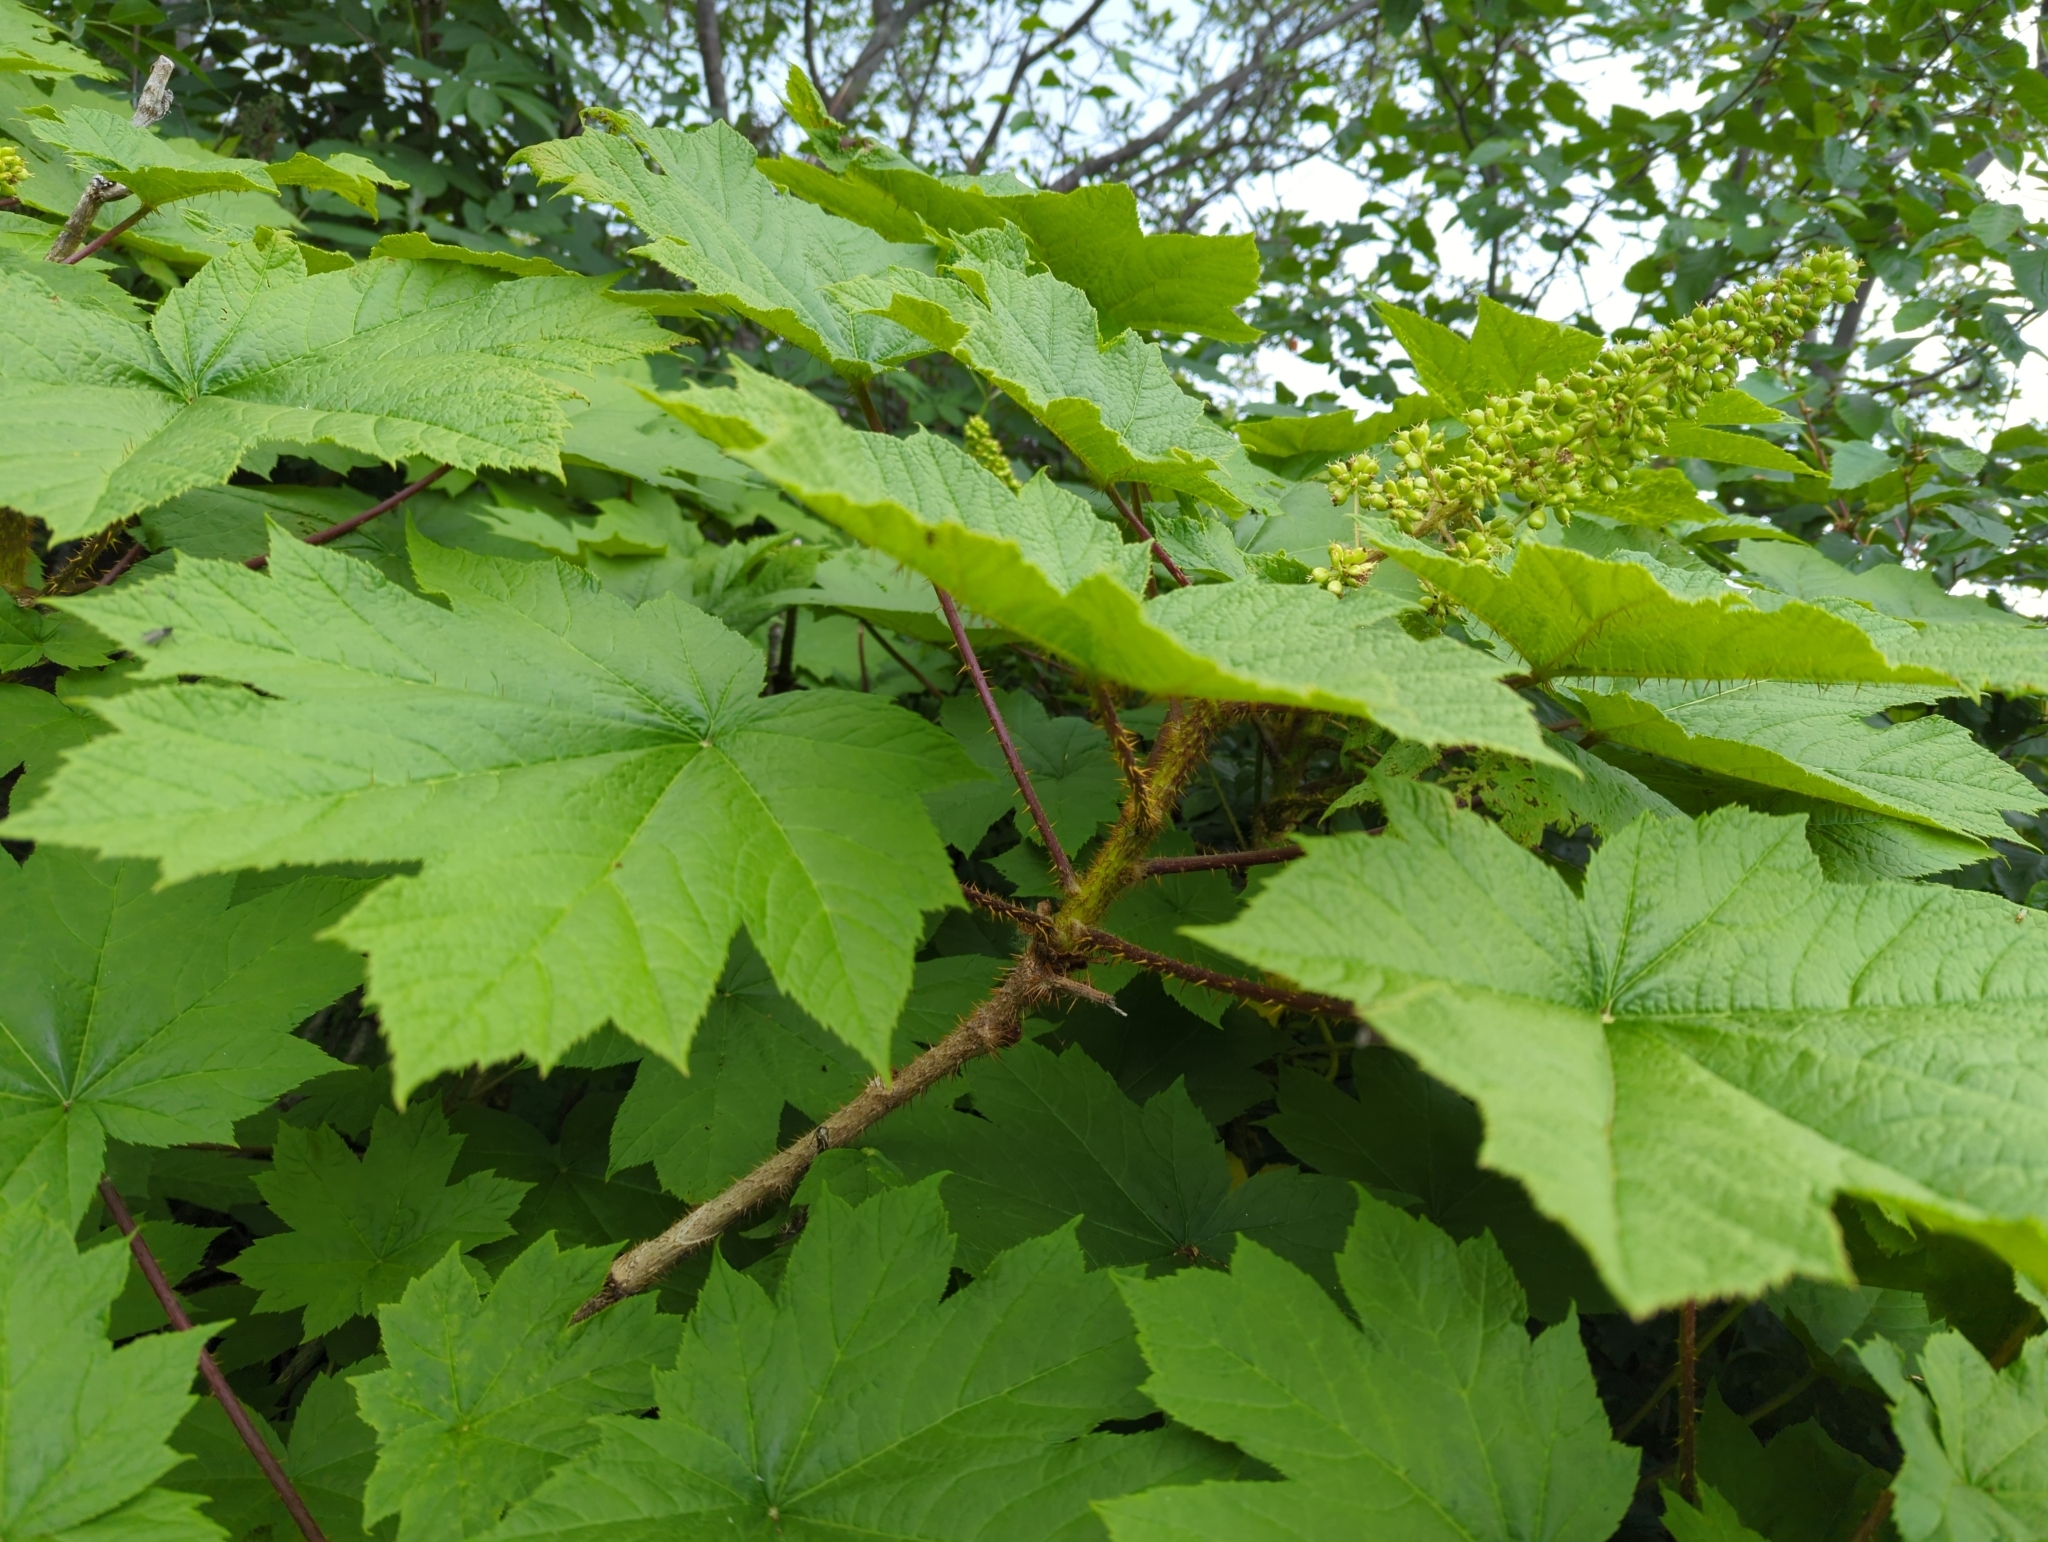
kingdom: Plantae
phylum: Tracheophyta
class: Magnoliopsida
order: Apiales
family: Araliaceae
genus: Oplopanax
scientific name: Oplopanax horridus
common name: Devil's walking-stick
